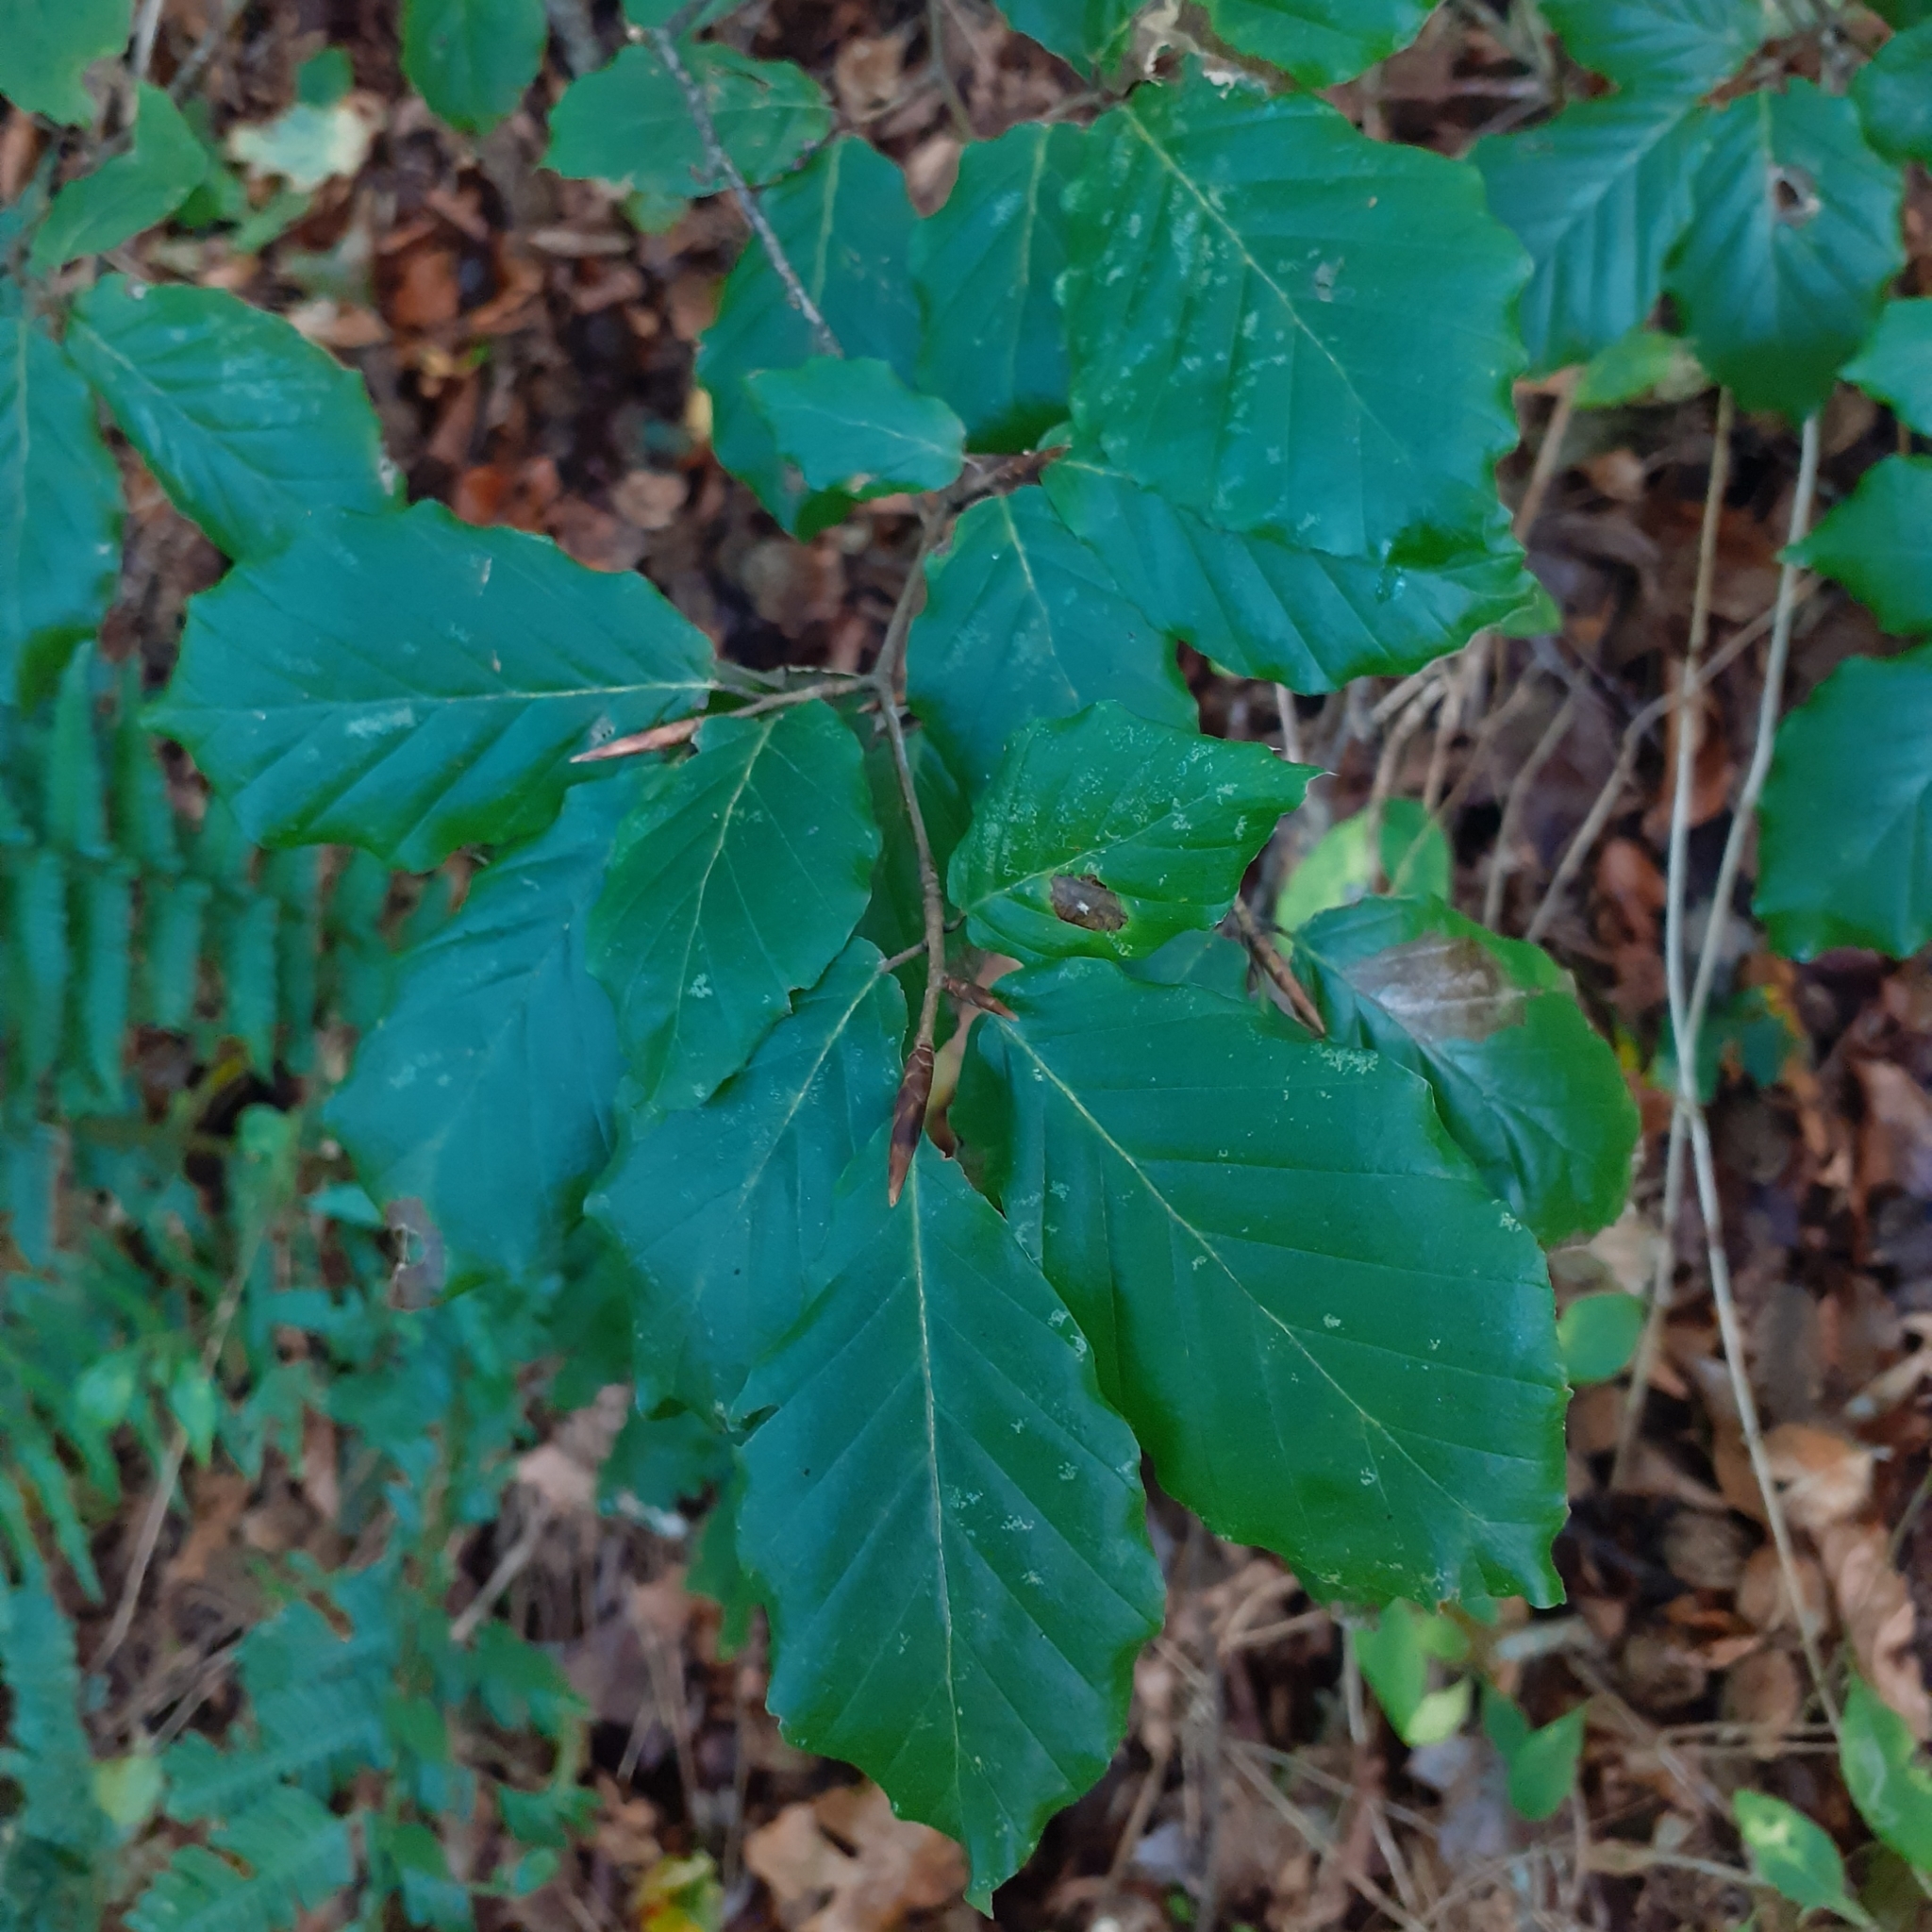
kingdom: Plantae
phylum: Tracheophyta
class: Magnoliopsida
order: Fagales
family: Fagaceae
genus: Fagus
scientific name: Fagus sylvatica
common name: Beech
